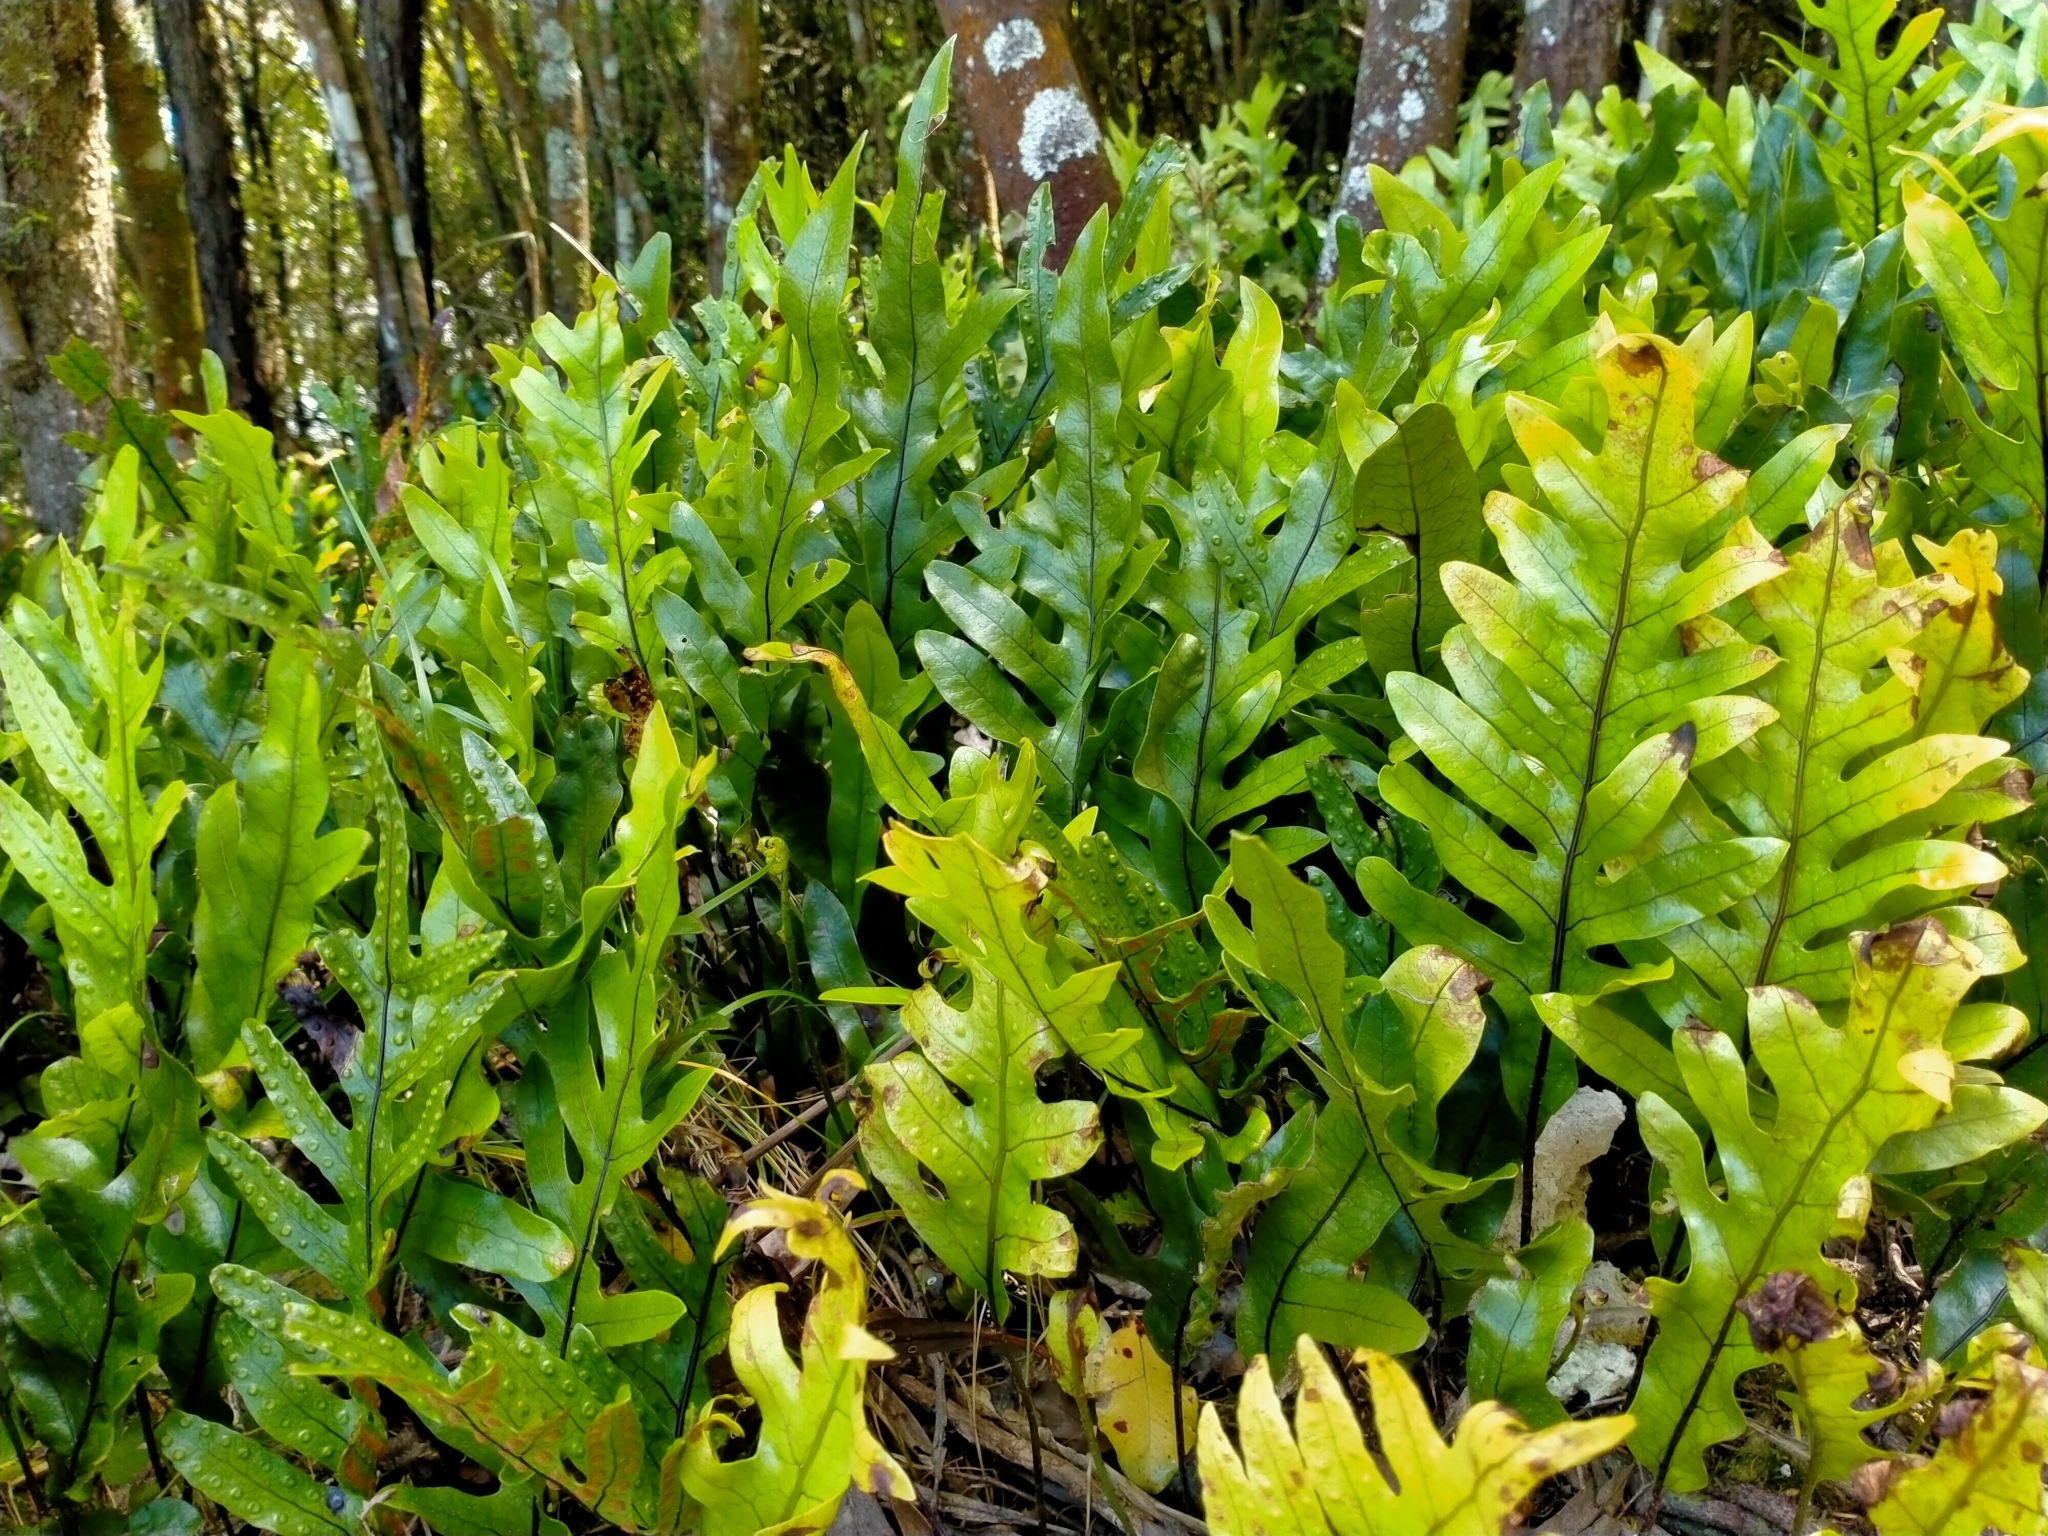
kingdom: Plantae
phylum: Tracheophyta
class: Polypodiopsida
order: Polypodiales
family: Polypodiaceae
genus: Lecanopteris
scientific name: Lecanopteris pustulata
